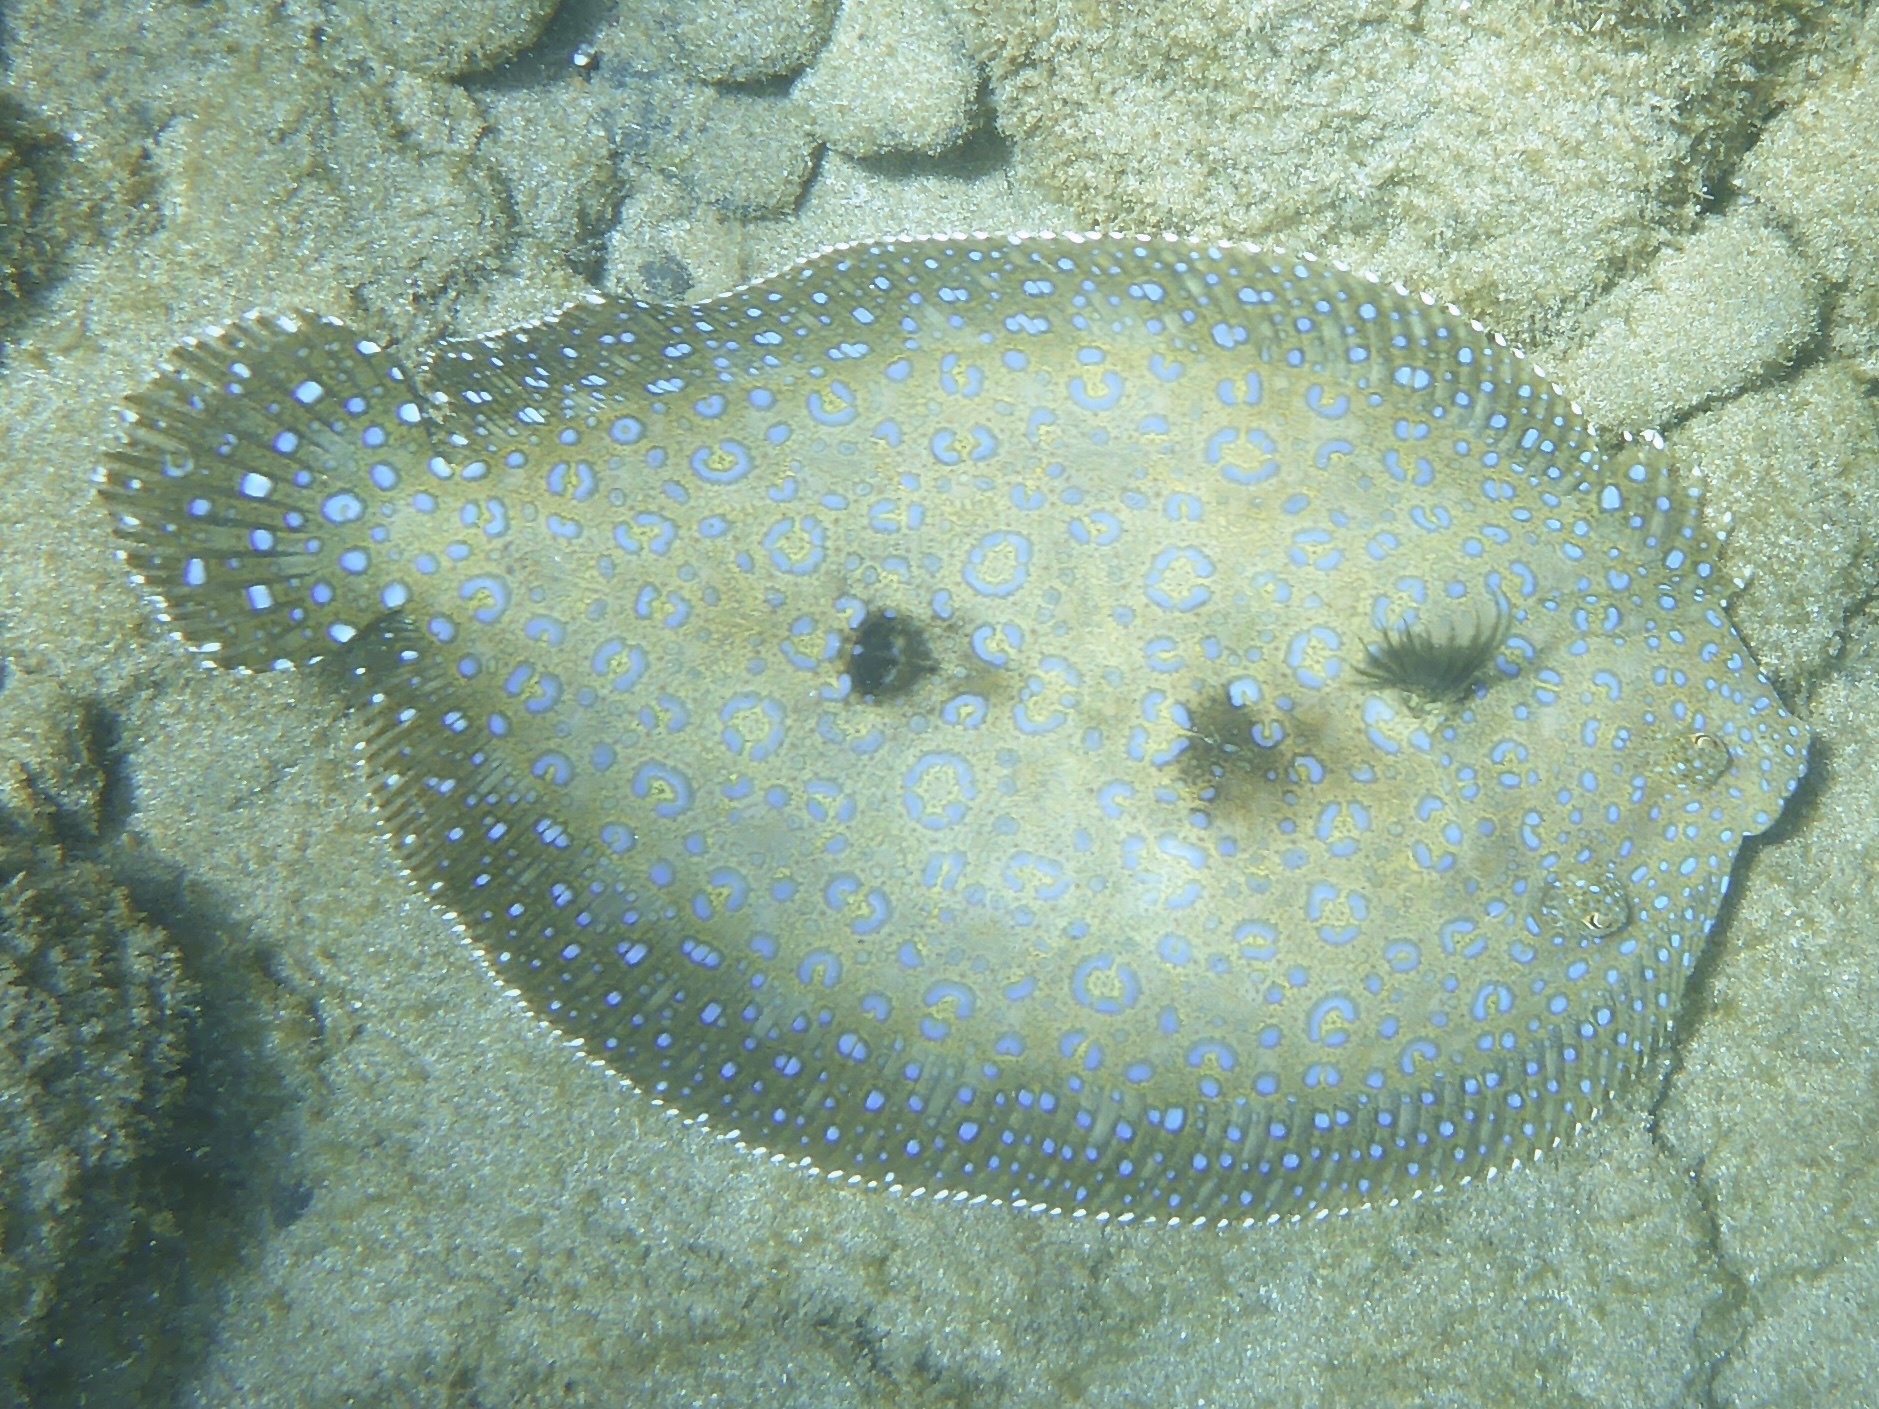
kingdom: Animalia
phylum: Chordata
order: Pleuronectiformes
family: Bothidae
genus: Bothus
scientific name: Bothus mancus
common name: Flowery flounder
